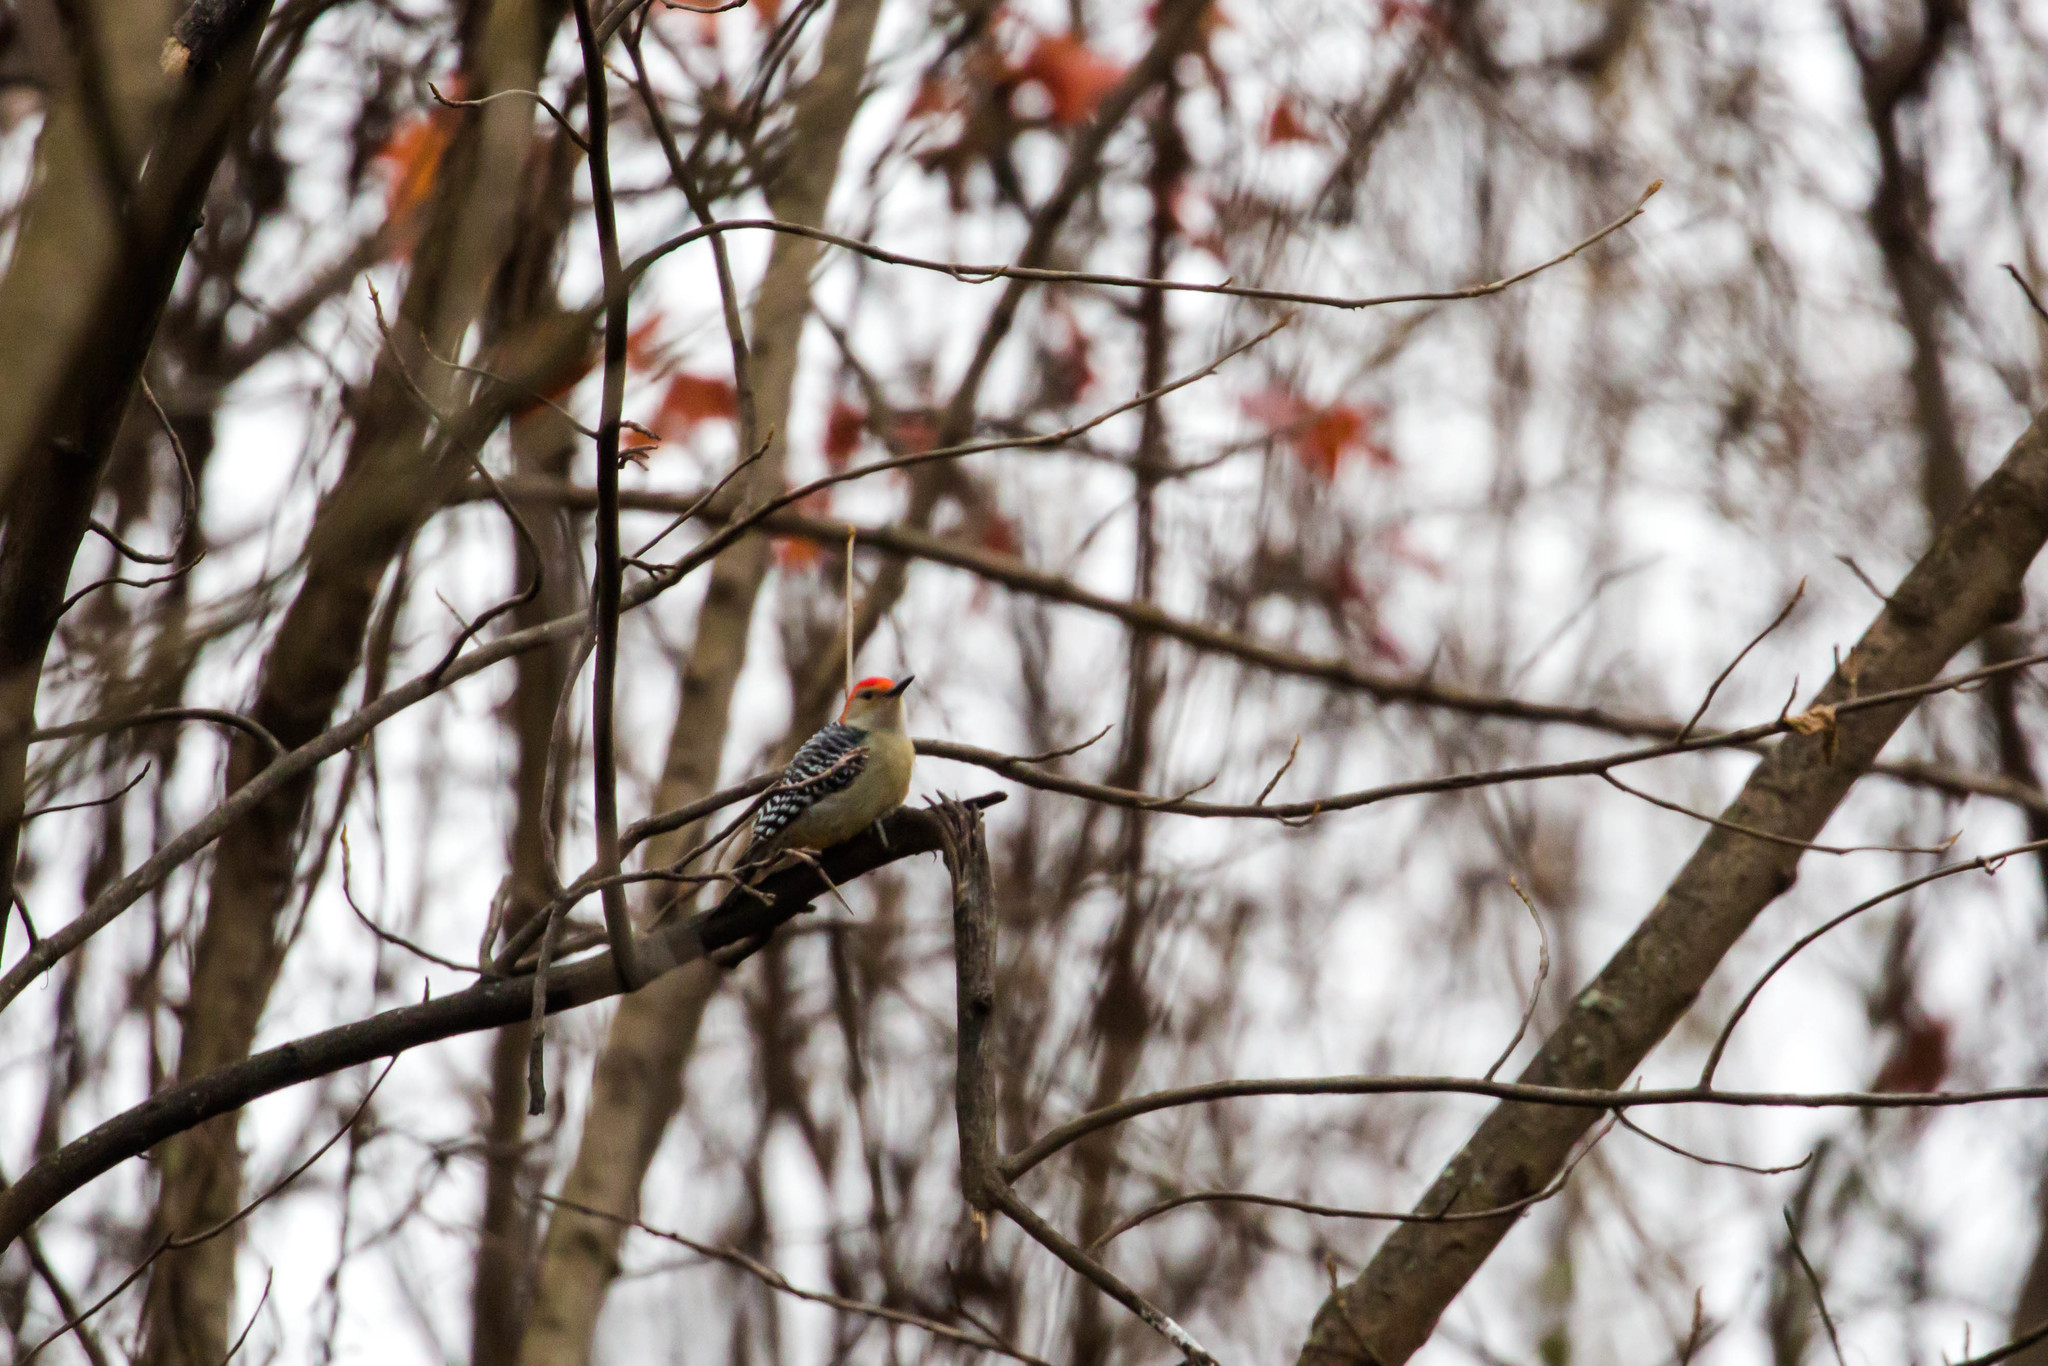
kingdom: Animalia
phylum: Chordata
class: Aves
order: Piciformes
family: Picidae
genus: Melanerpes
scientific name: Melanerpes carolinus
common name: Red-bellied woodpecker
